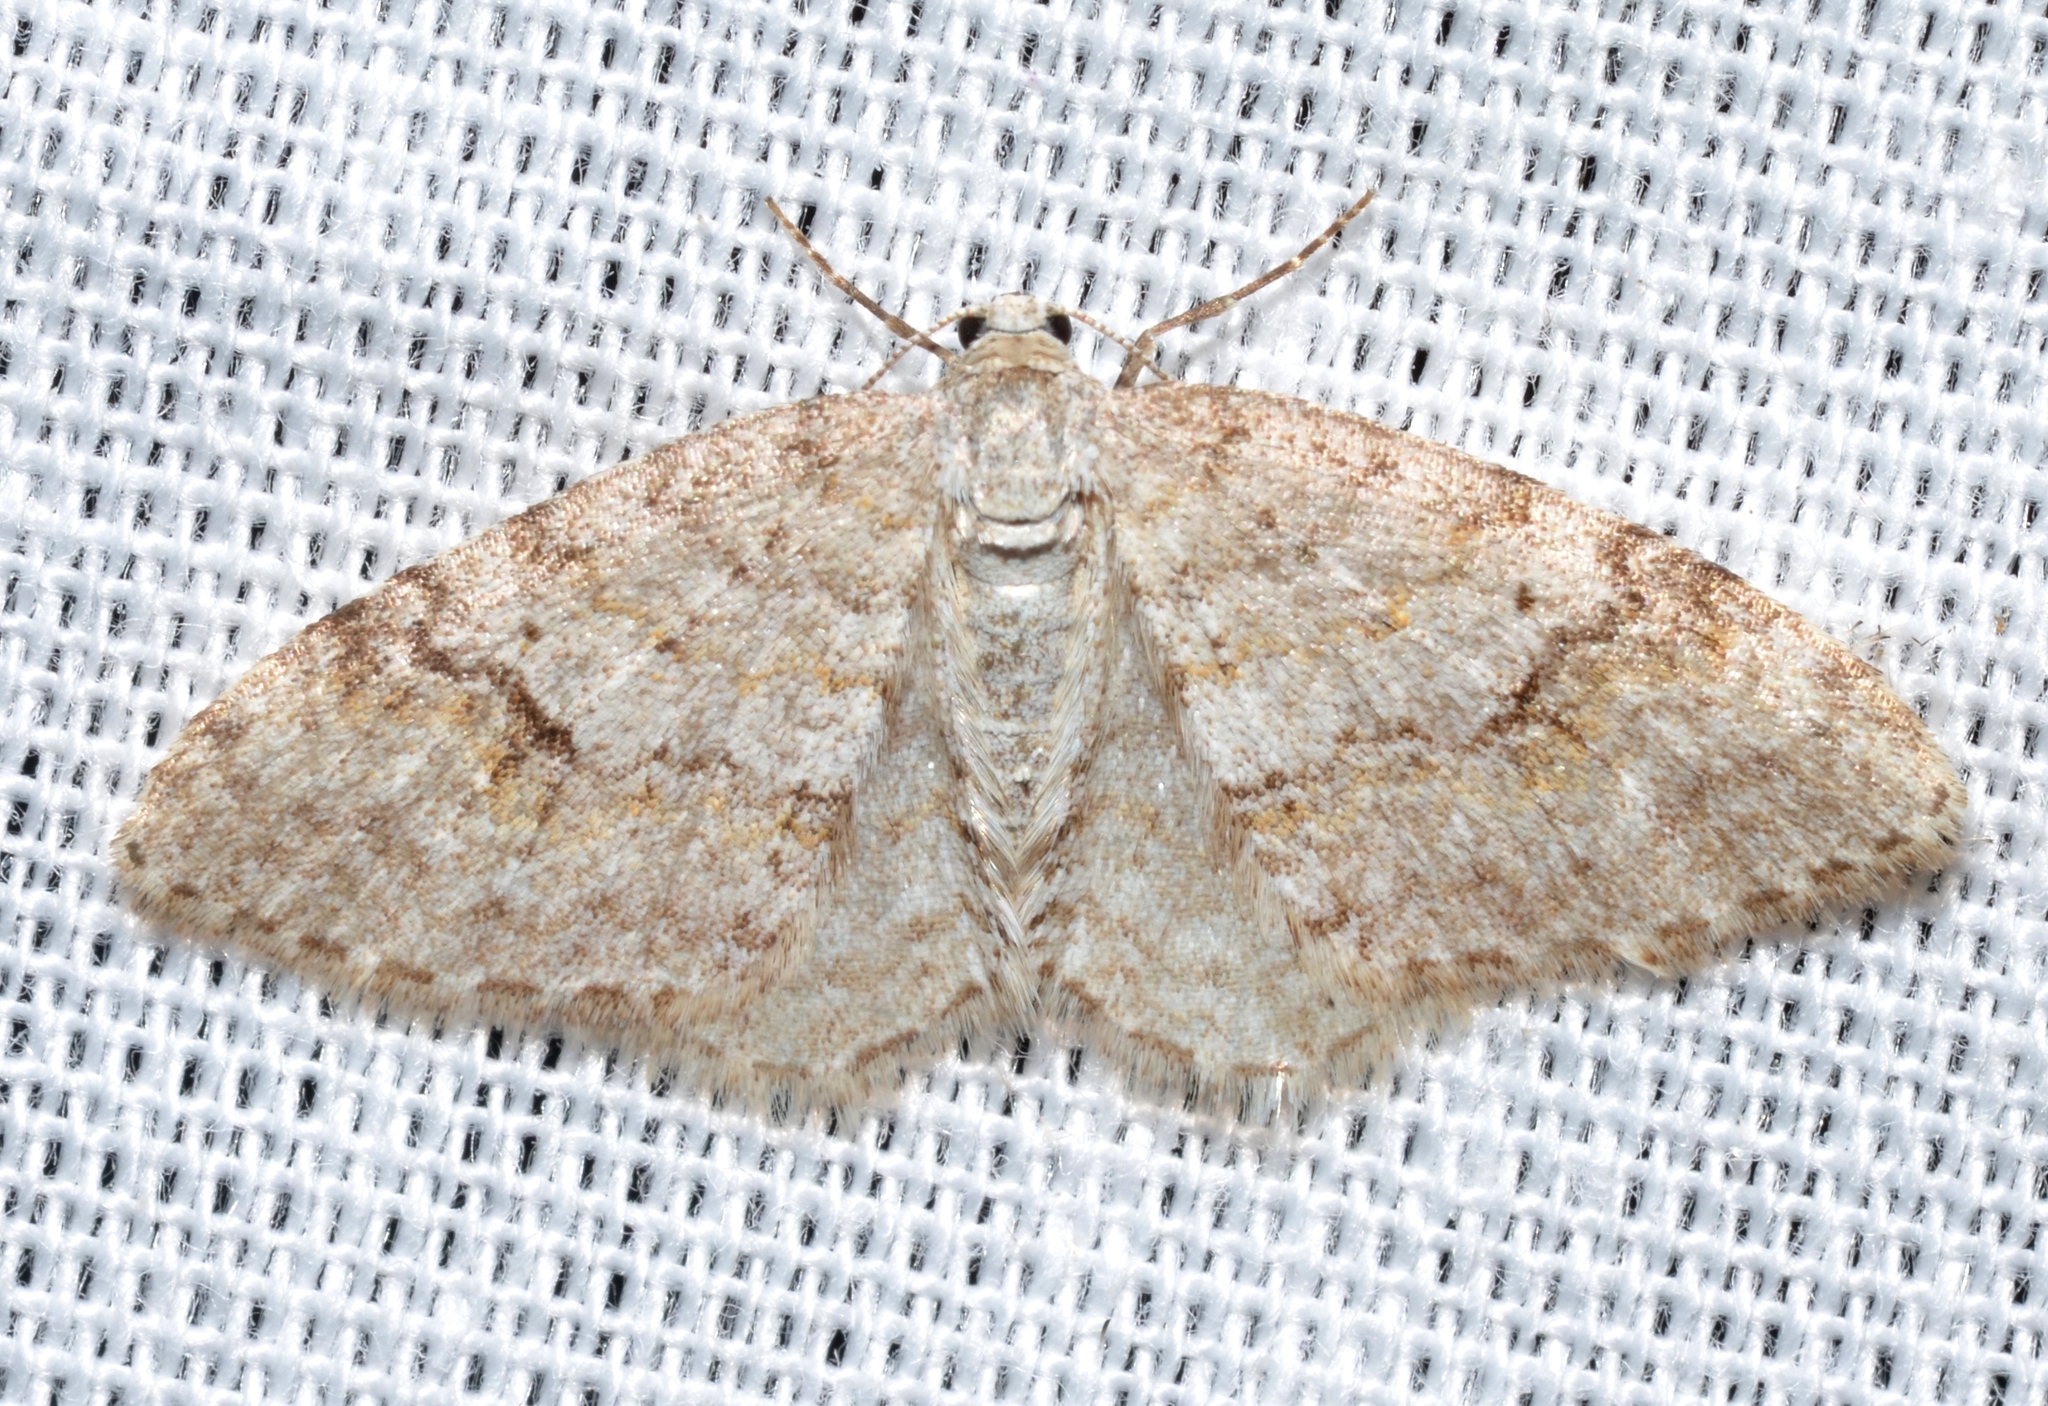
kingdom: Animalia
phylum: Arthropoda
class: Insecta
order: Lepidoptera
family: Geometridae
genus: Venusia
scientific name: Venusia comptaria
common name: Brown-shaded carpet
